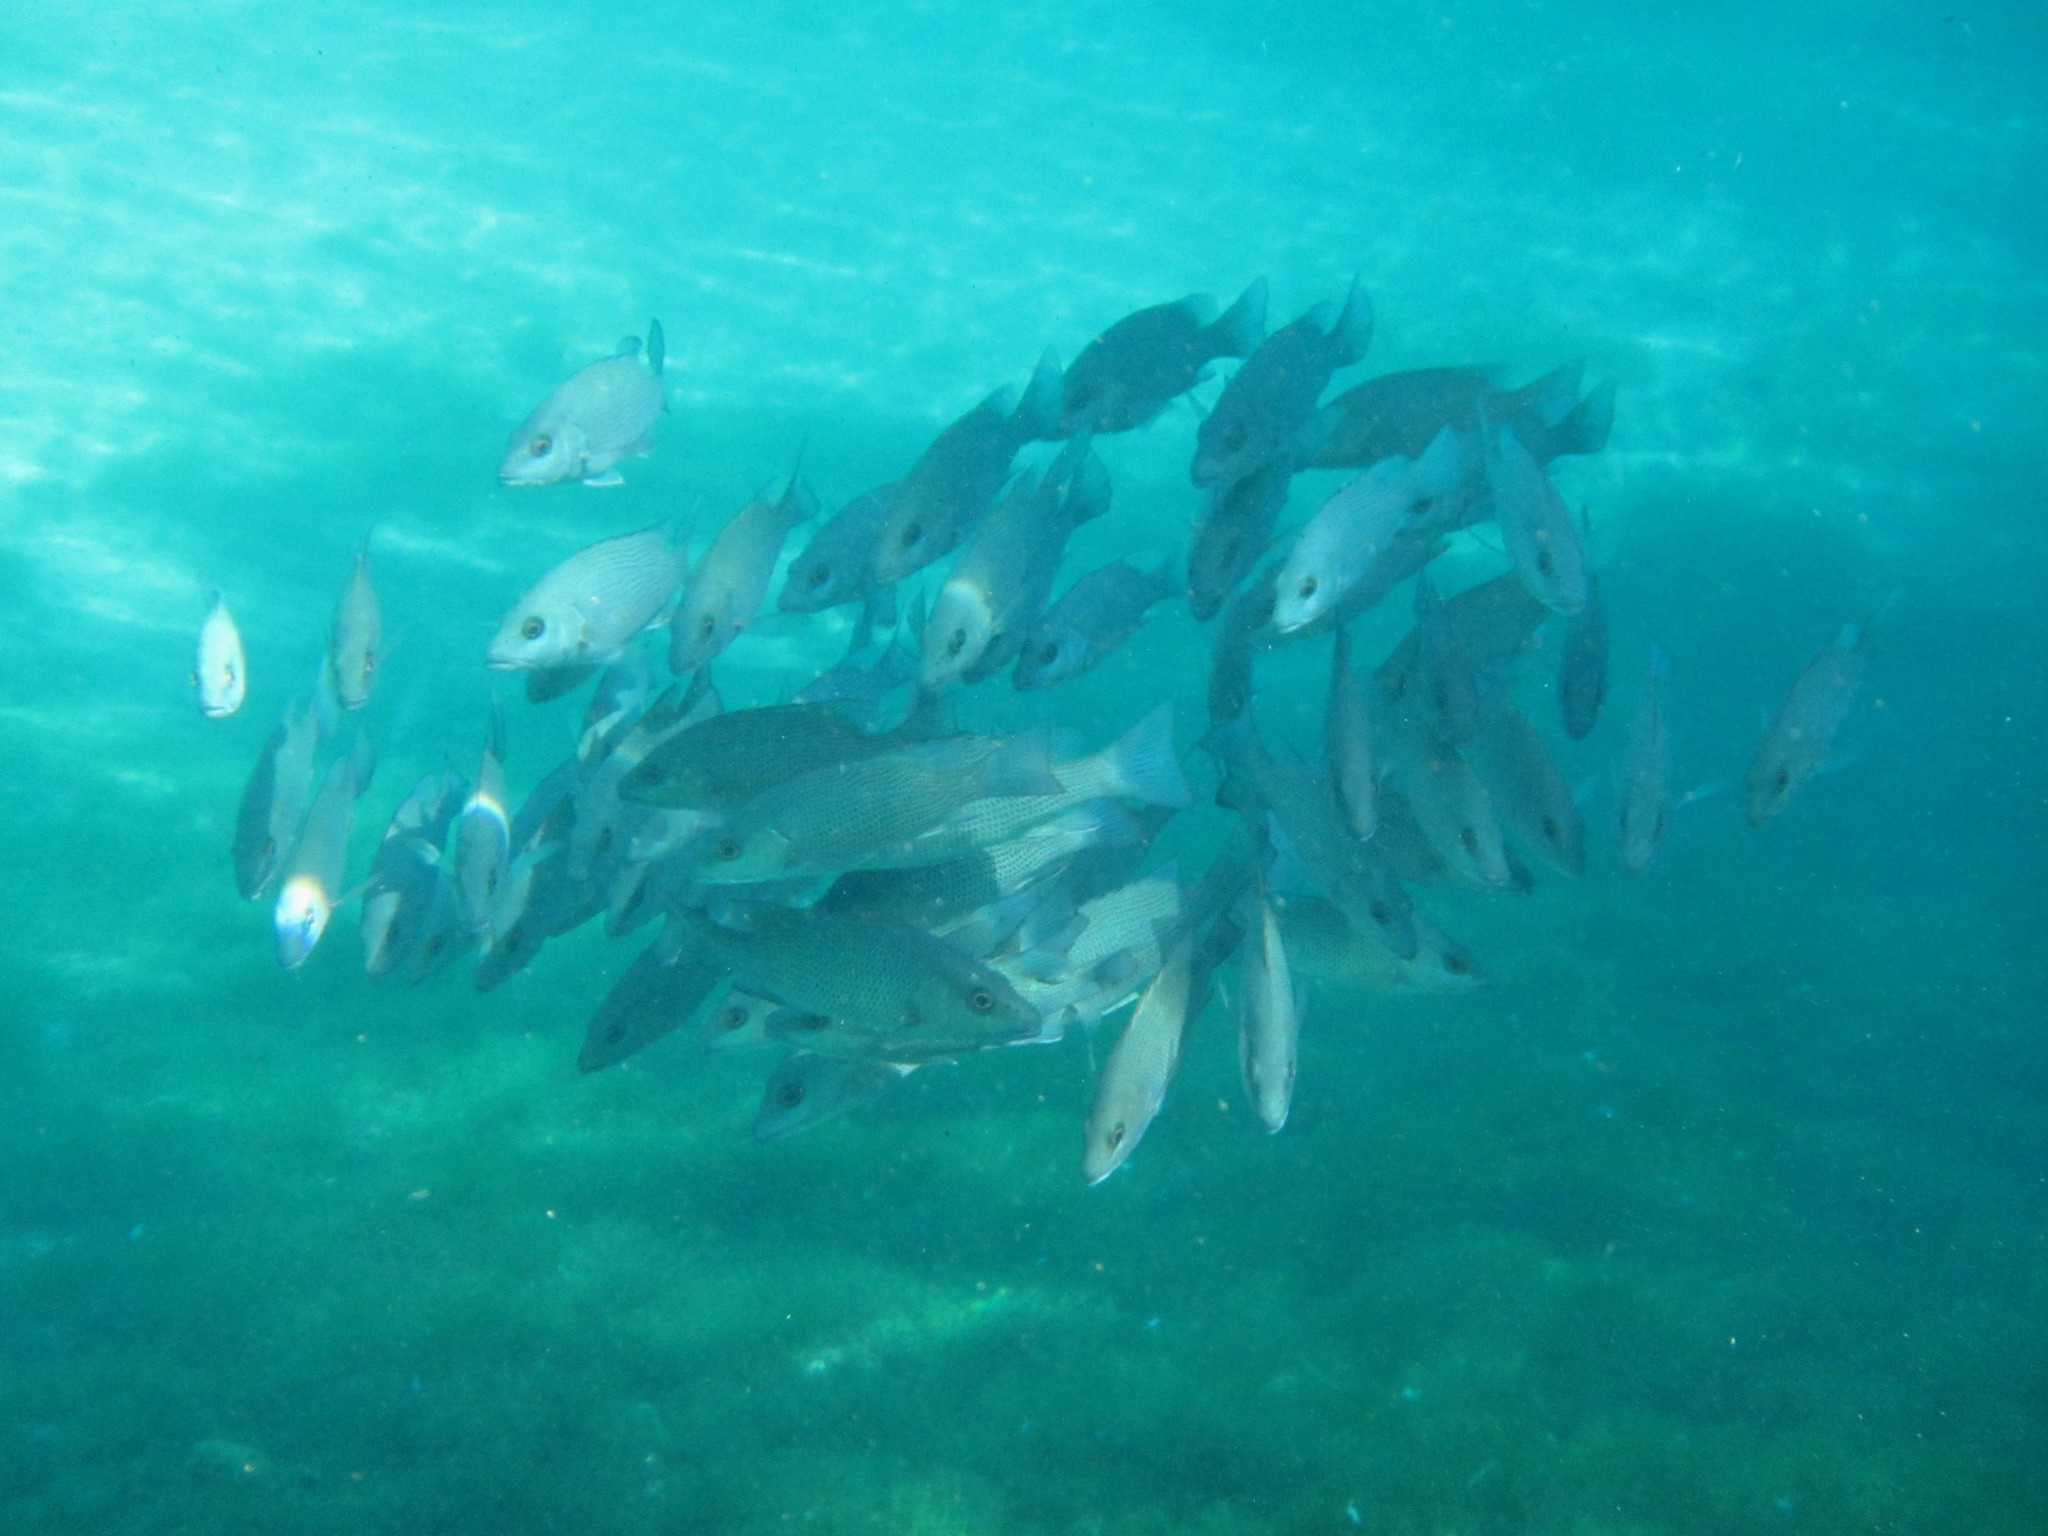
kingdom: Animalia
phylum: Chordata
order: Perciformes
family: Lutjanidae
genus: Lutjanus
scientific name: Lutjanus griseus
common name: Gray snapper
